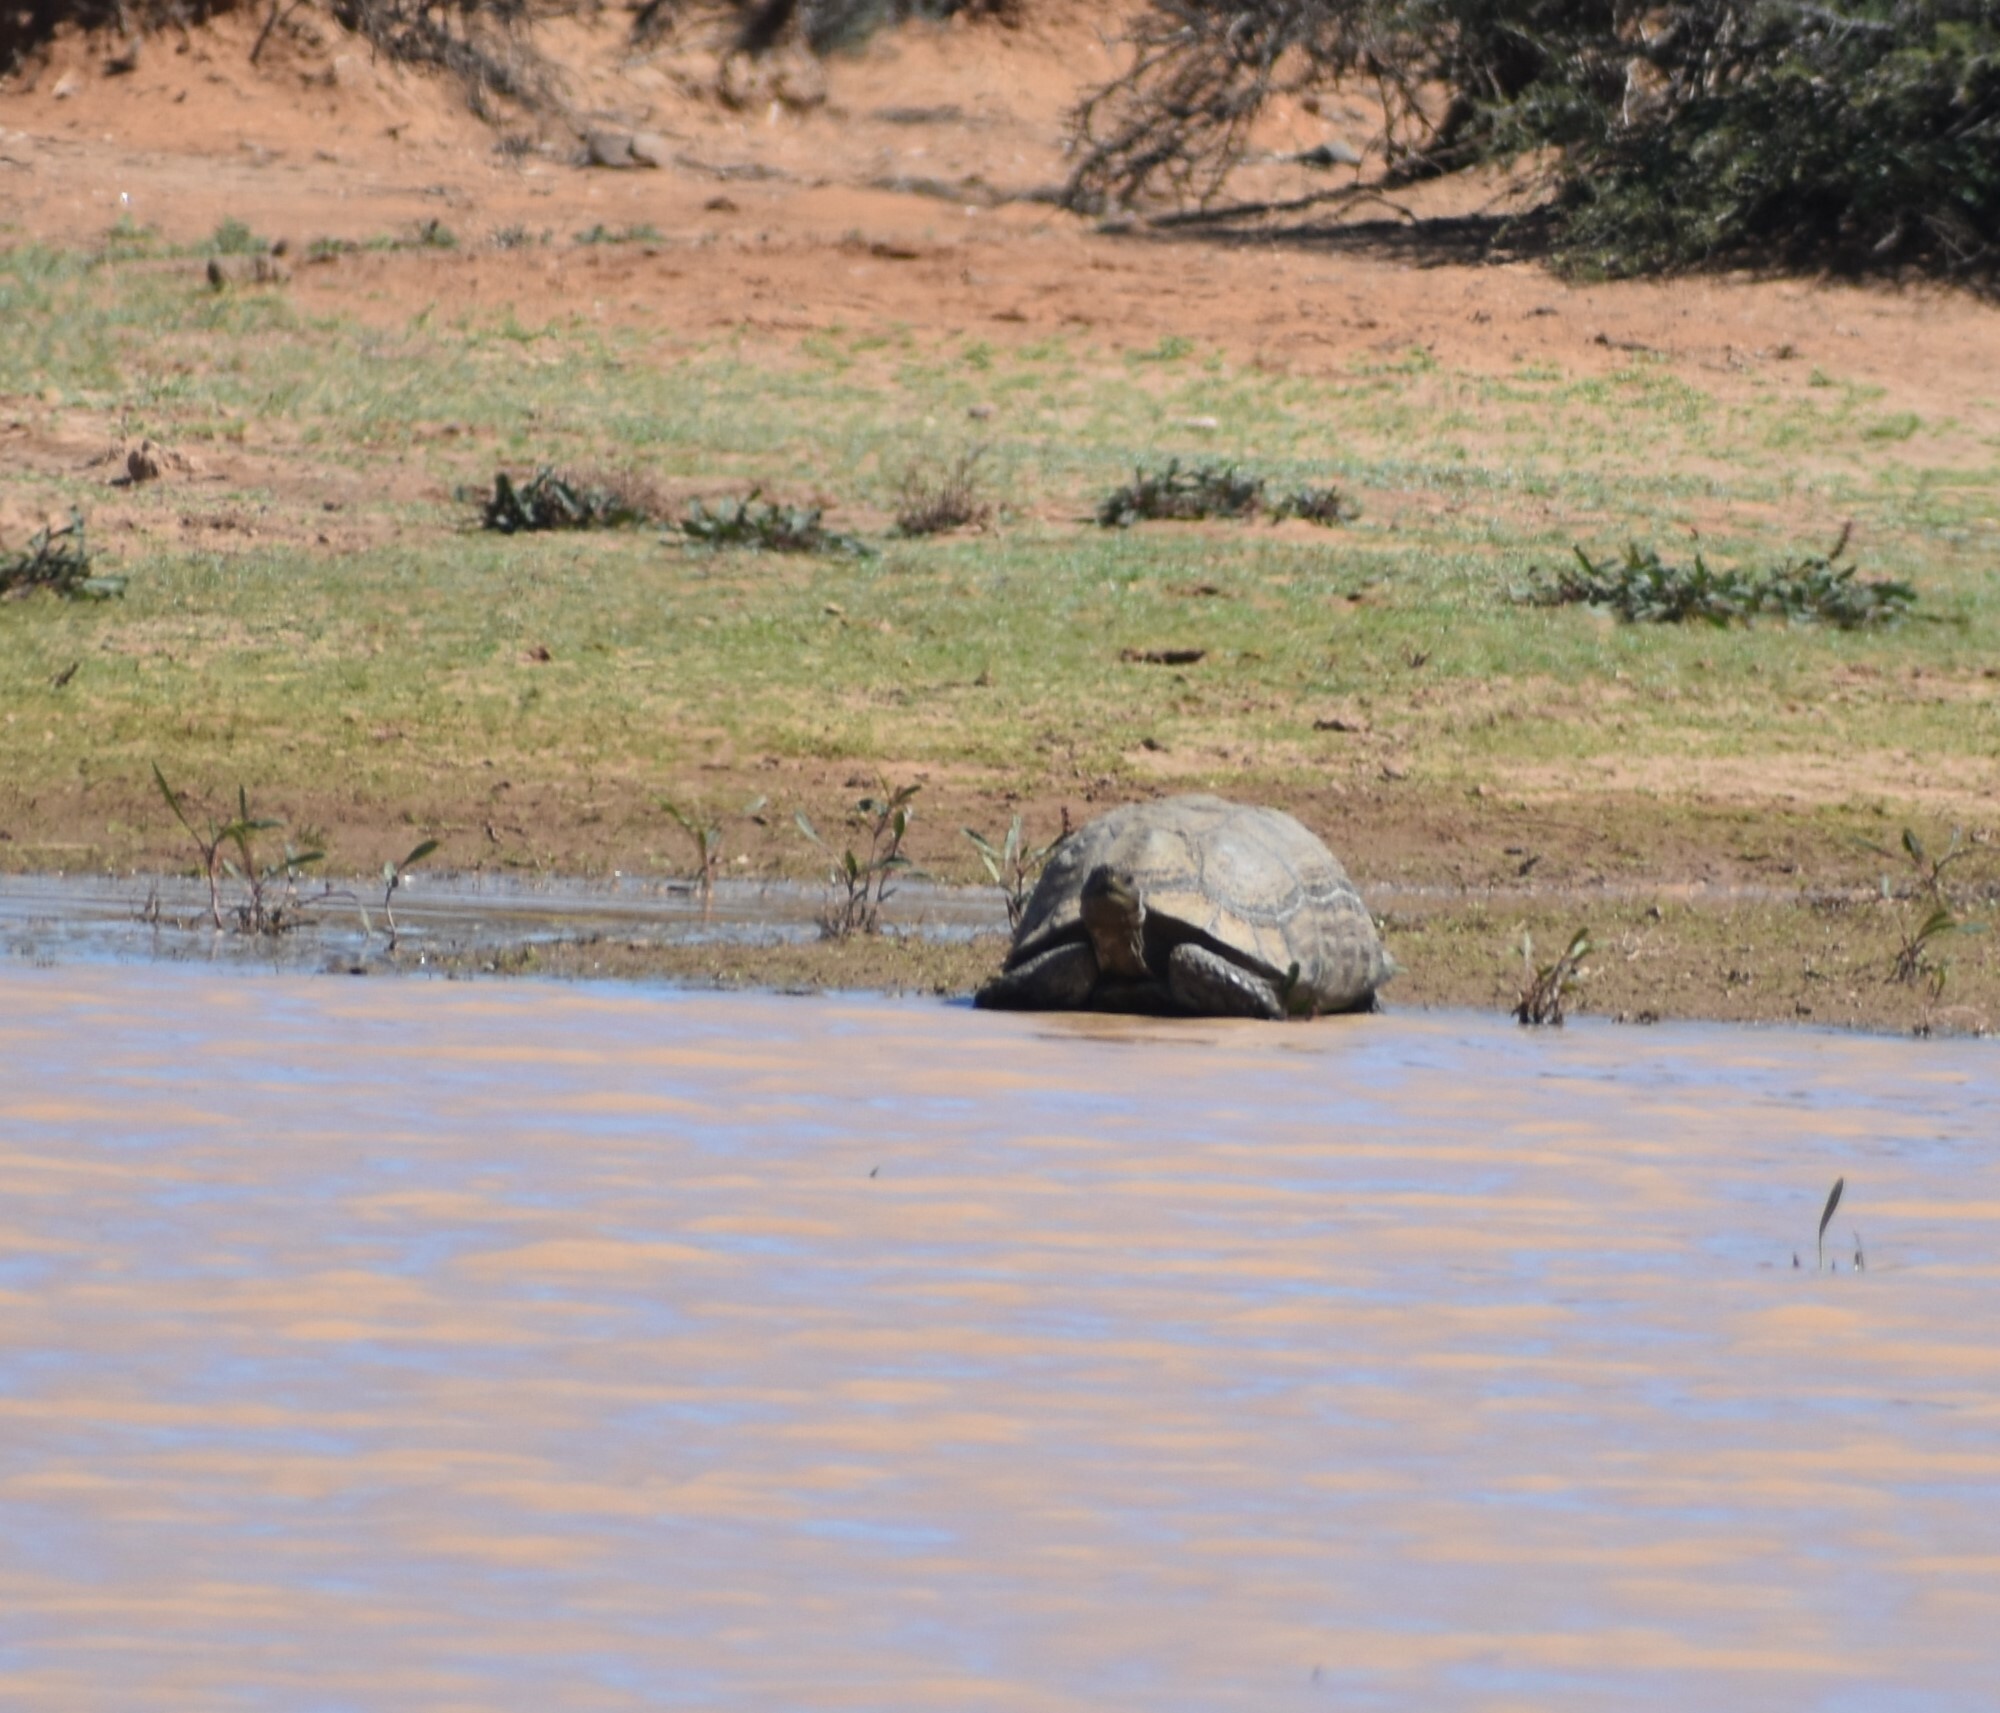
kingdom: Animalia
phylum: Chordata
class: Testudines
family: Testudinidae
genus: Stigmochelys
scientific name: Stigmochelys pardalis
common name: Leopard tortoise
